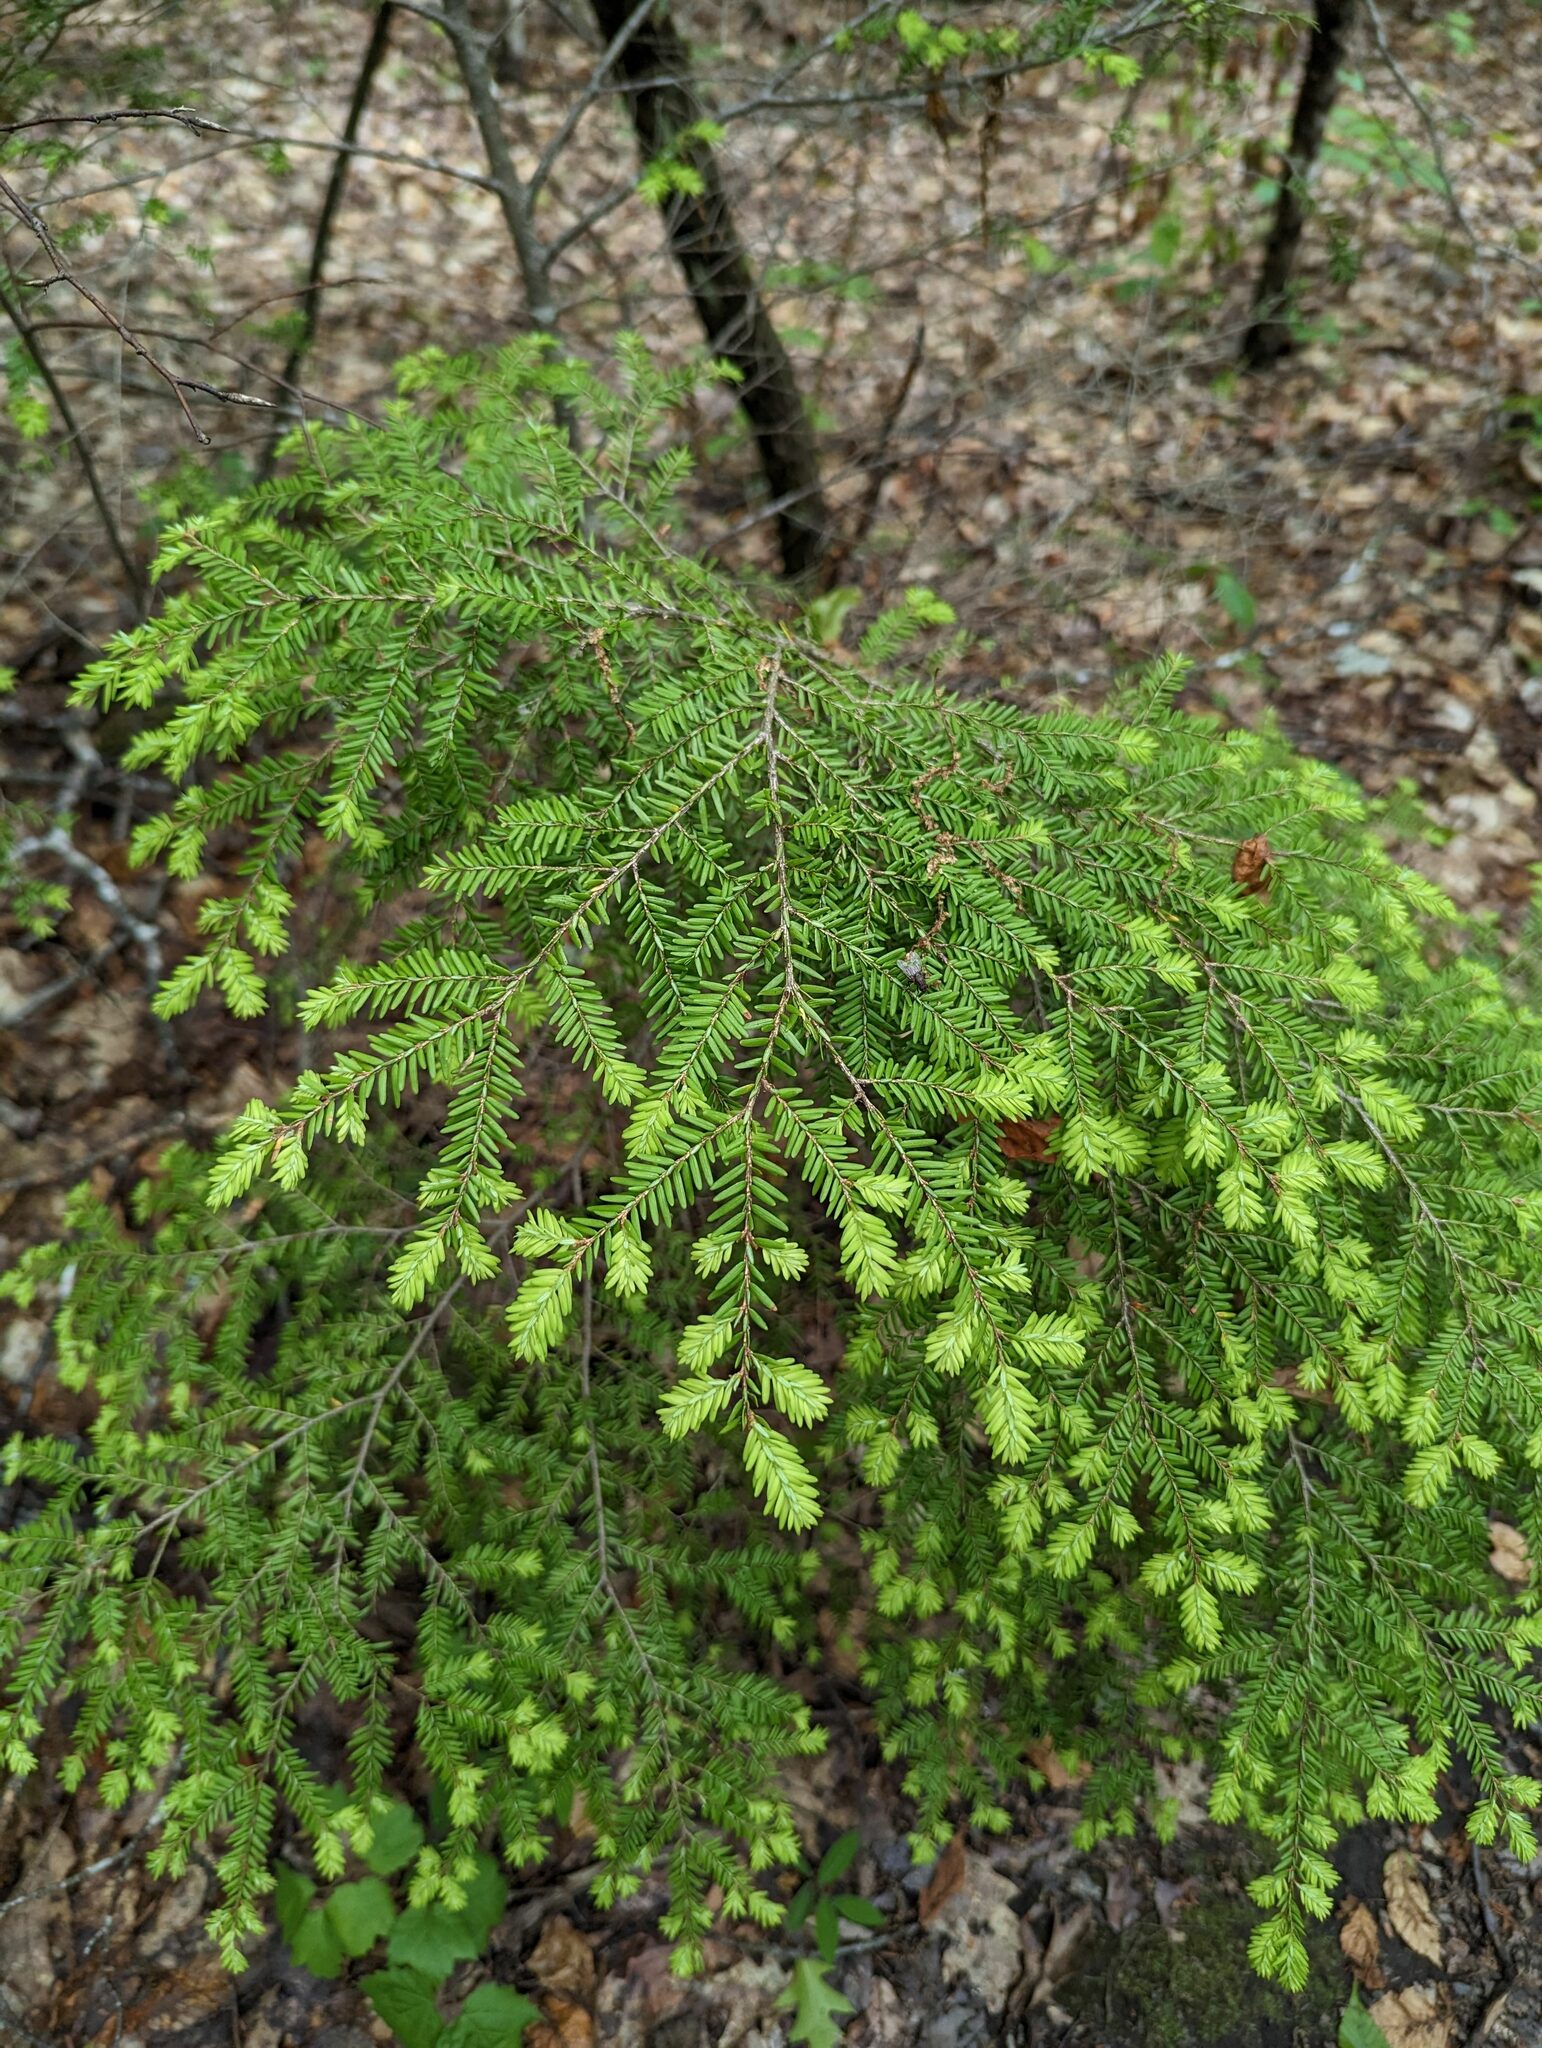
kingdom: Plantae
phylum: Tracheophyta
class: Pinopsida
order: Pinales
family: Pinaceae
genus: Tsuga
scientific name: Tsuga canadensis
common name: Eastern hemlock
